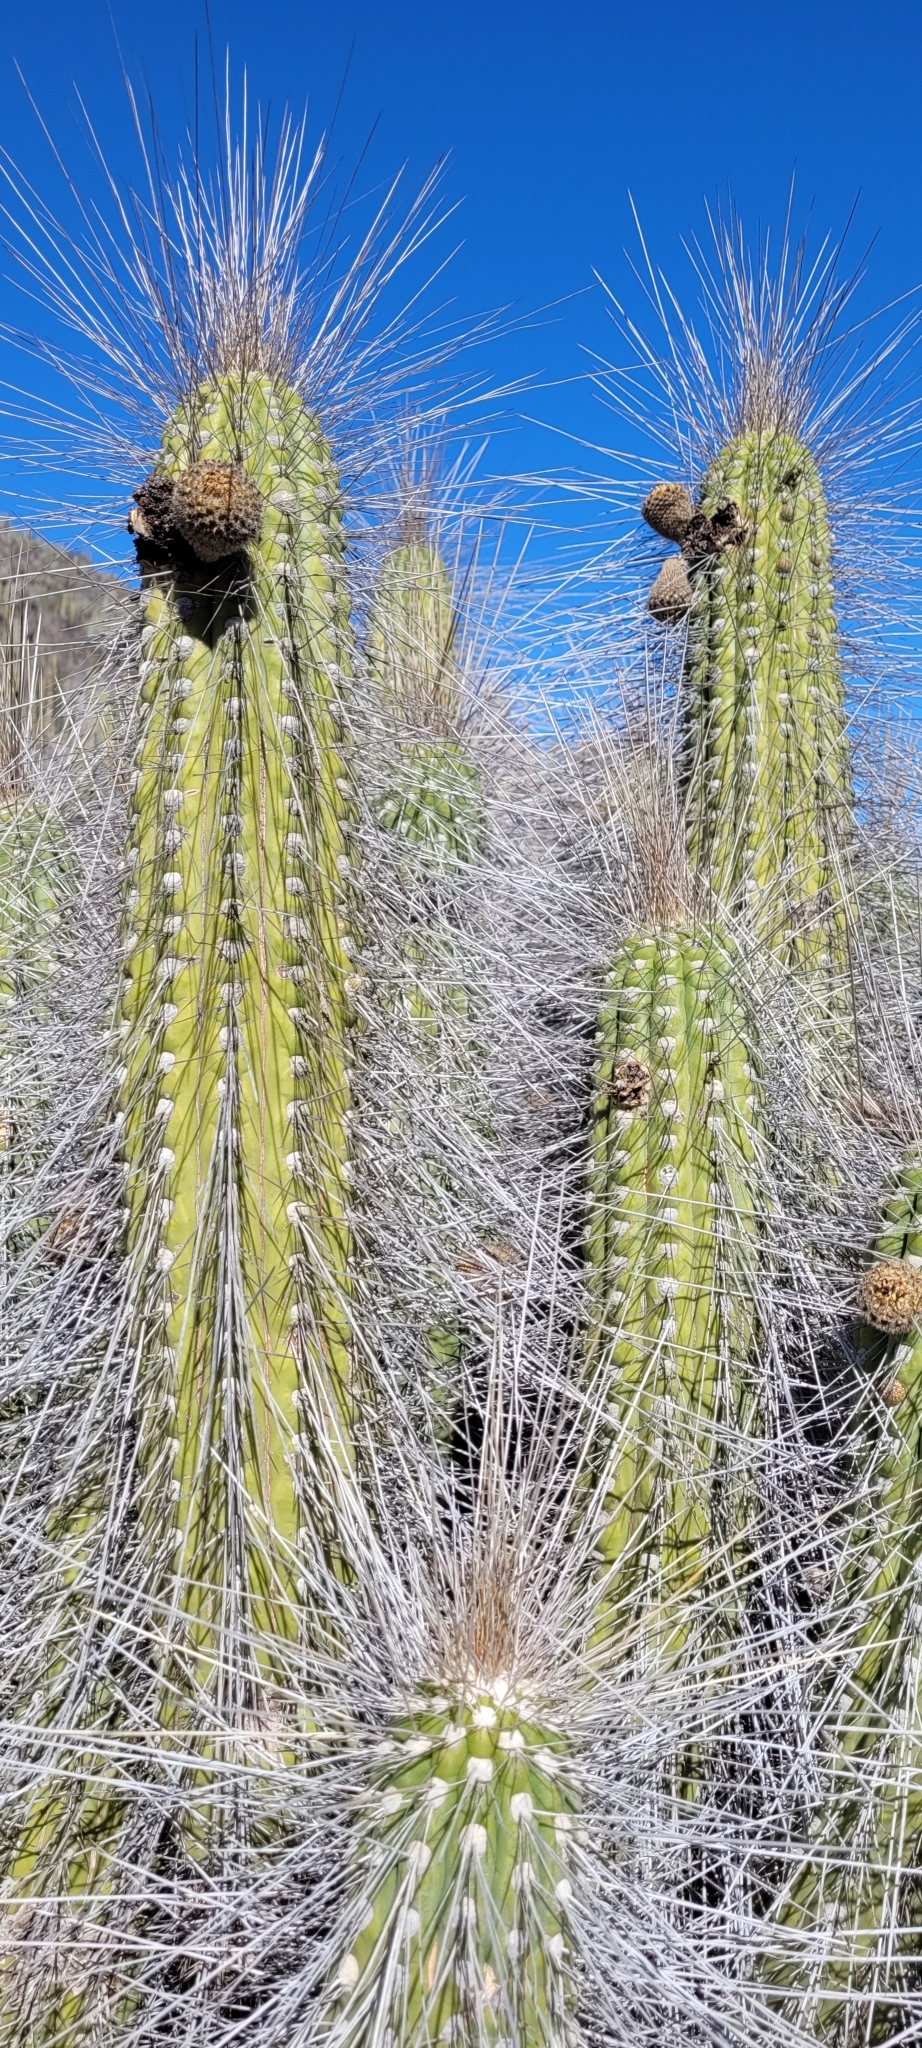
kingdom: Plantae
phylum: Tracheophyta
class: Magnoliopsida
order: Caryophyllales
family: Cactaceae
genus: Eulychnia
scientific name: Eulychnia acida
